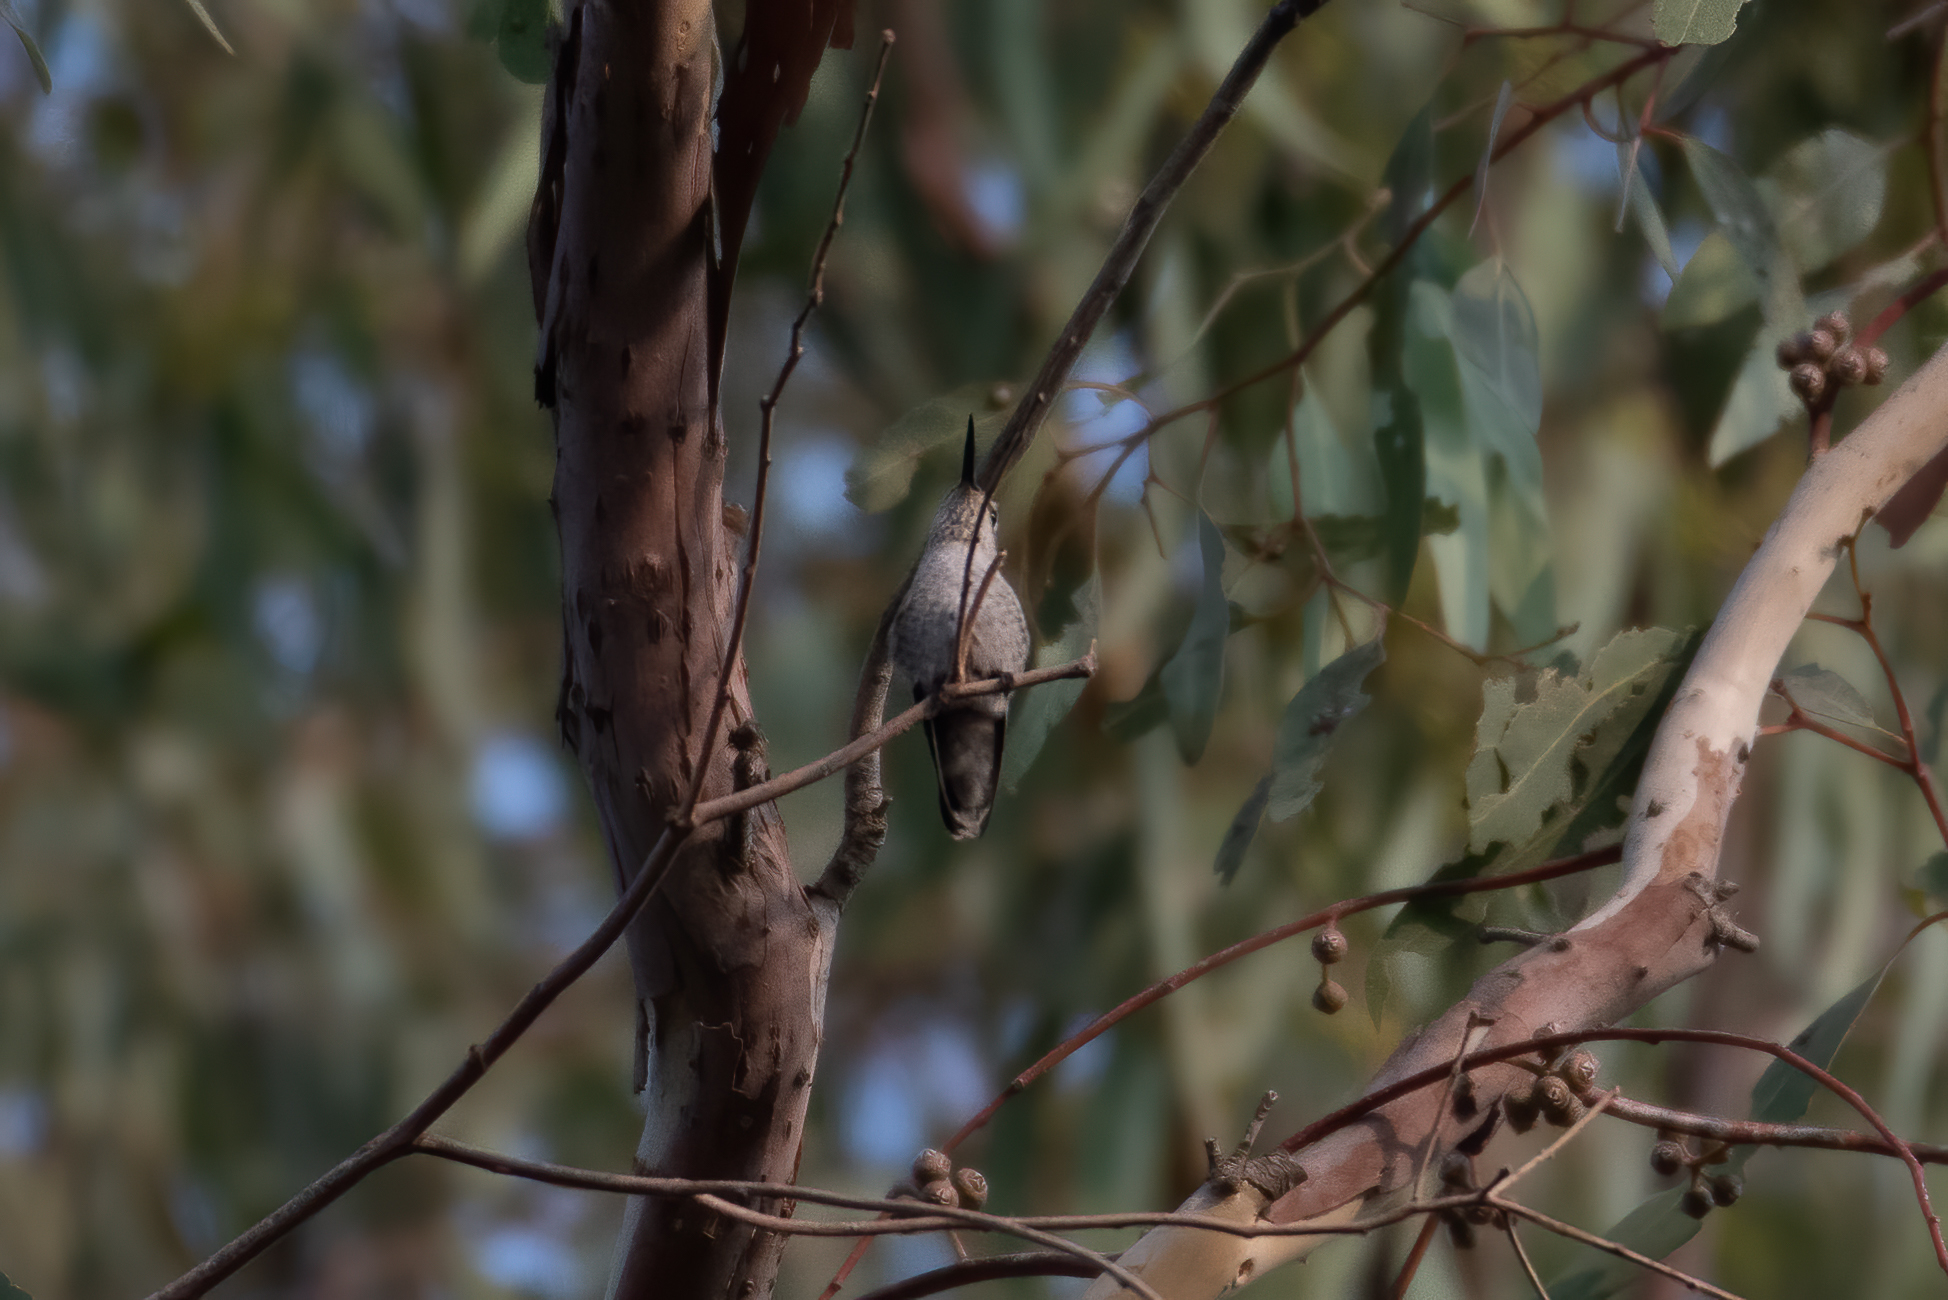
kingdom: Animalia
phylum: Chordata
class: Aves
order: Apodiformes
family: Trochilidae
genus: Calypte
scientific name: Calypte anna
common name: Anna's hummingbird
